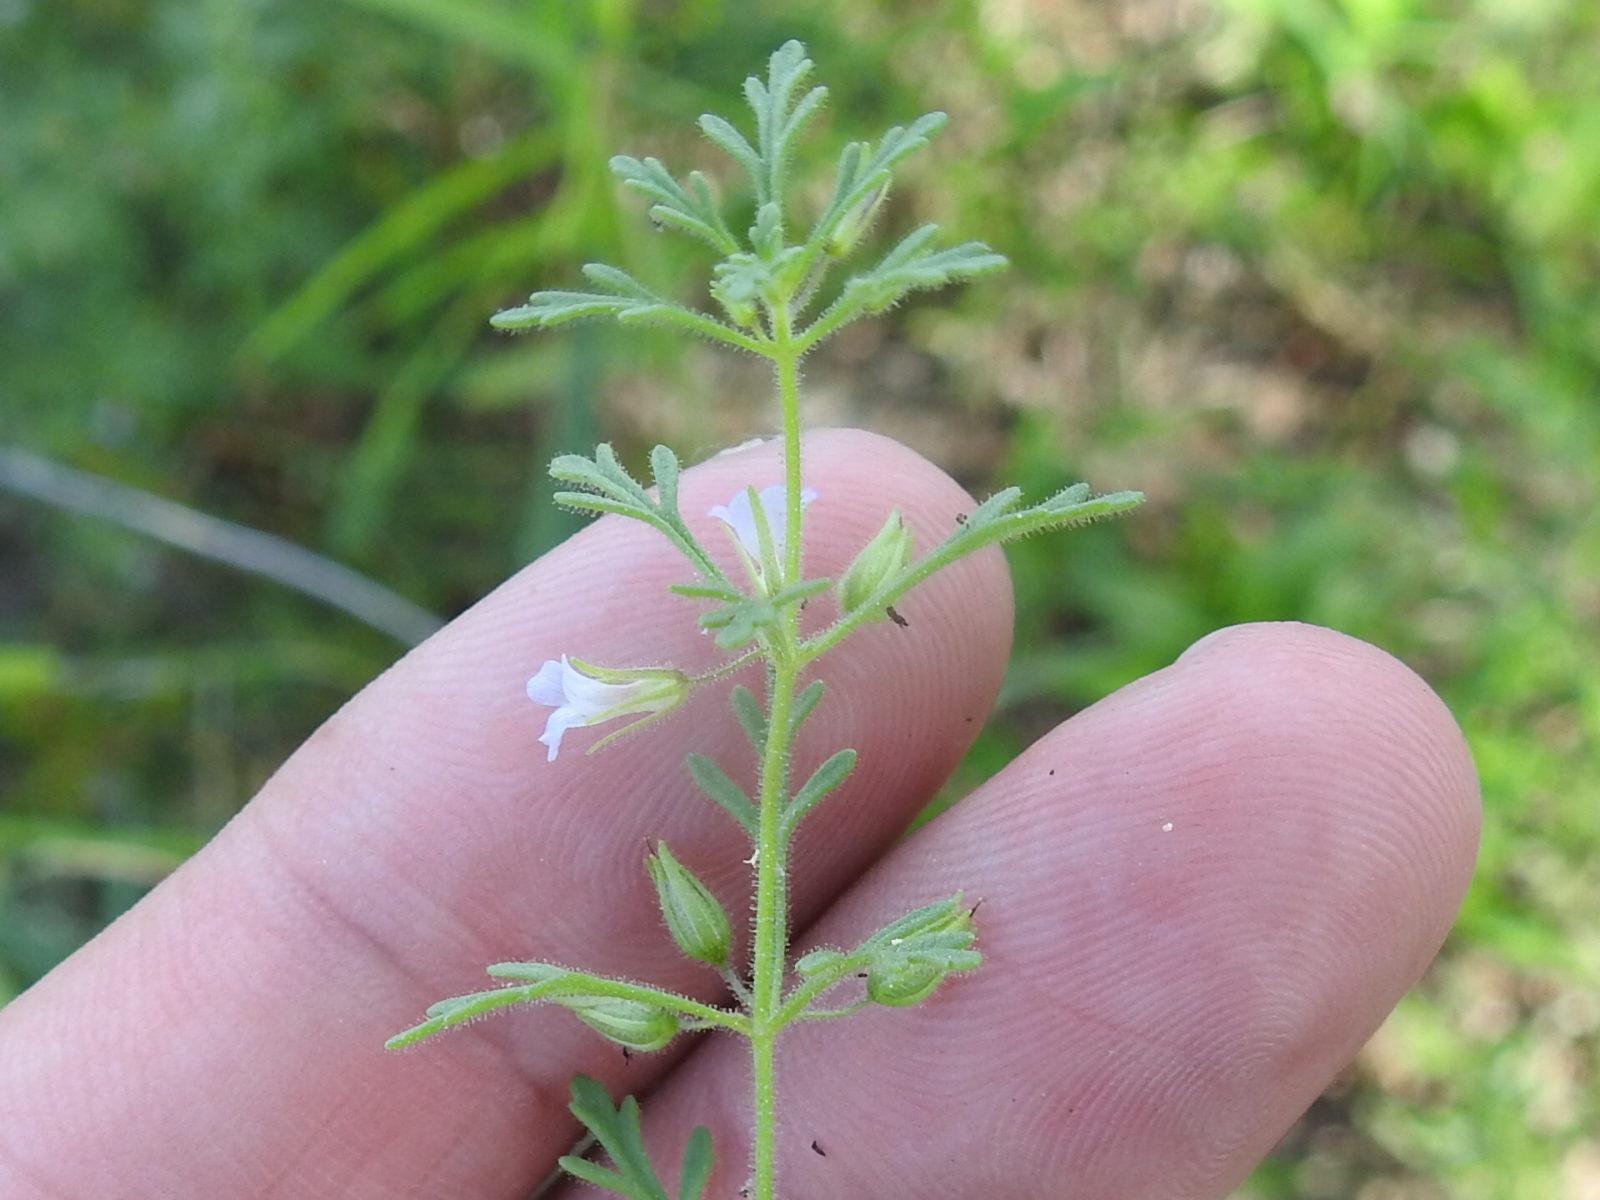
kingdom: Plantae
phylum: Tracheophyta
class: Magnoliopsida
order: Lamiales
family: Plantaginaceae
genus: Leucospora
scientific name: Leucospora multifida
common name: Narrow-leaf paleseed
